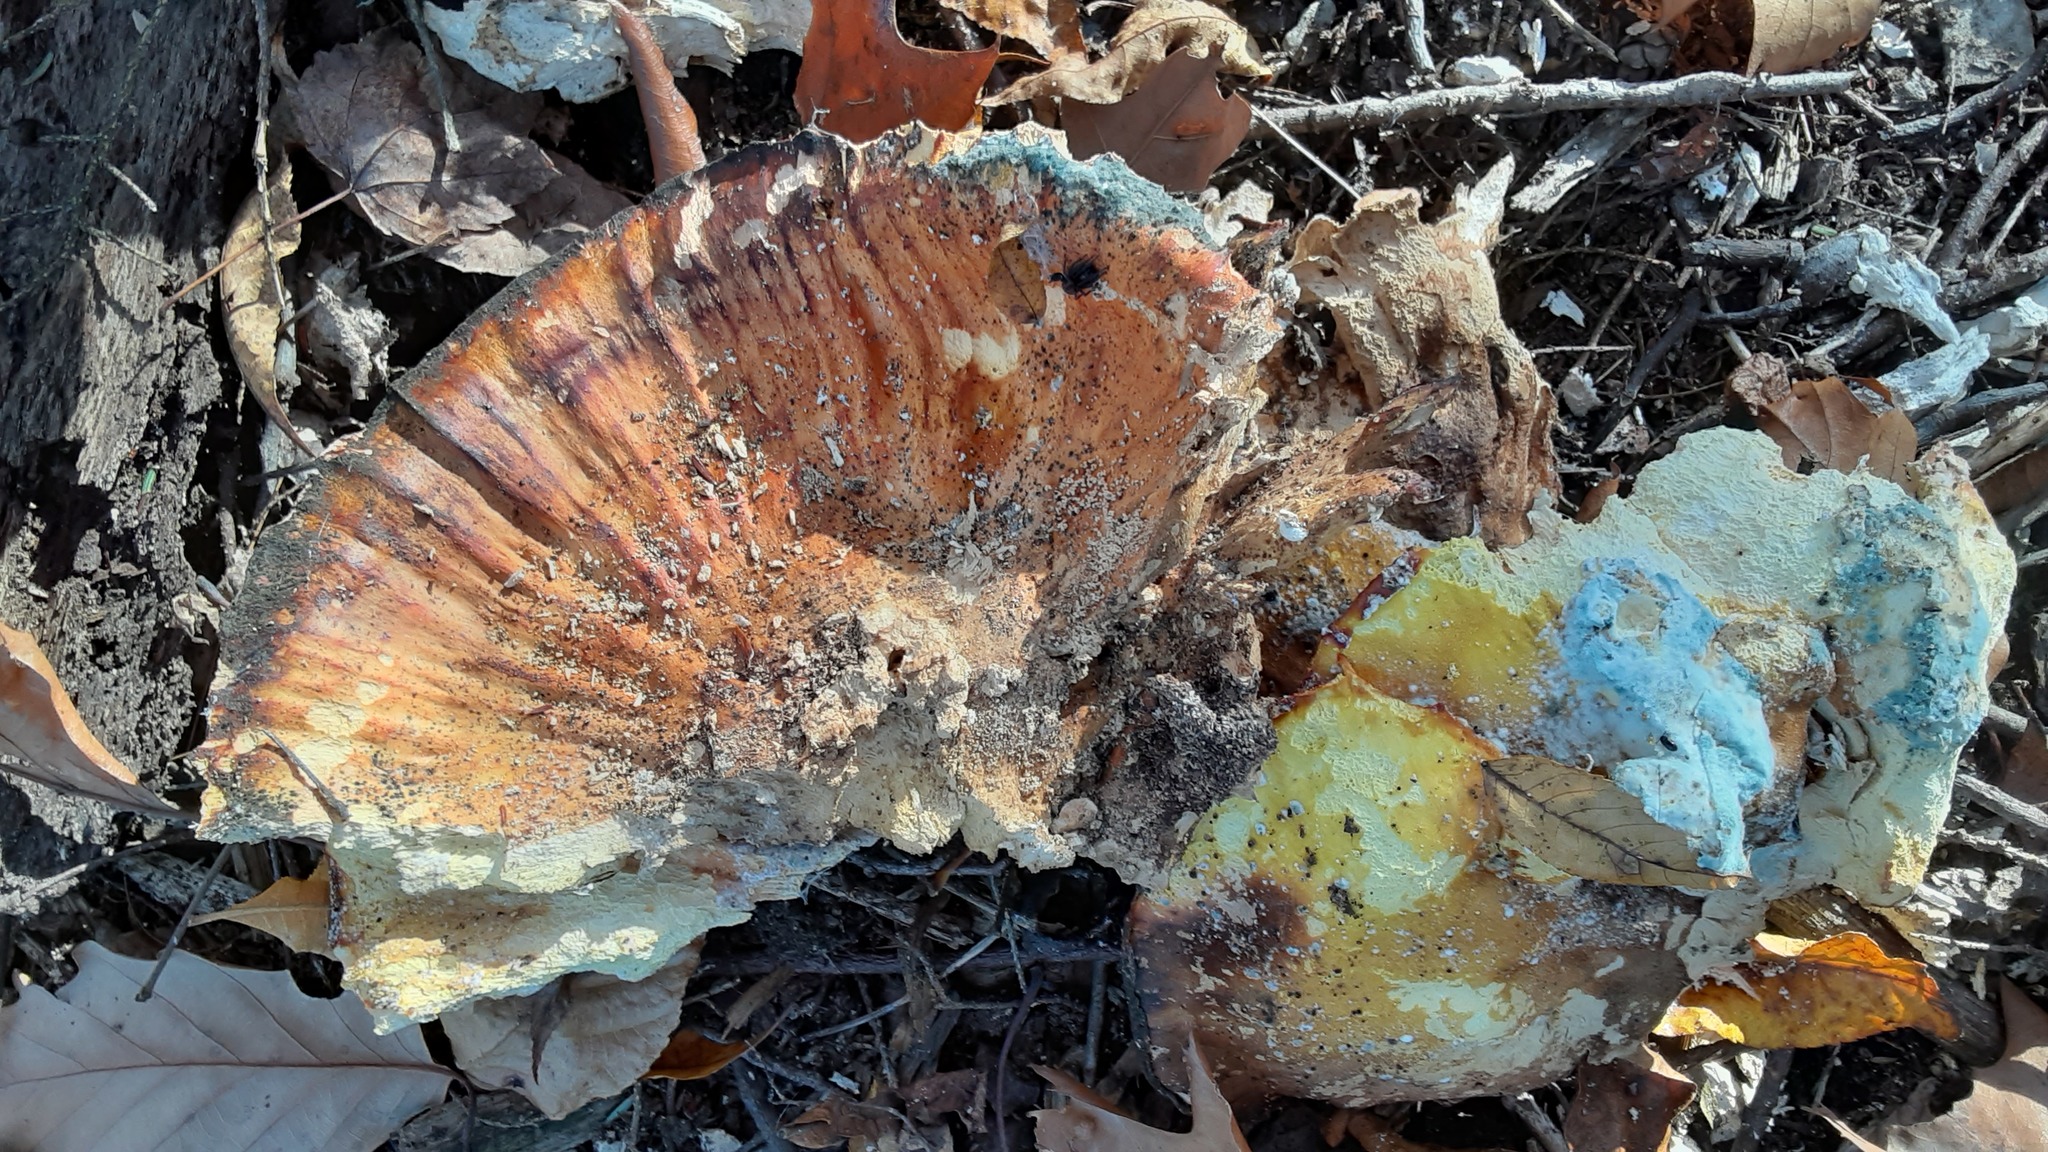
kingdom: Fungi
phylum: Basidiomycota
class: Agaricomycetes
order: Polyporales
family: Laetiporaceae
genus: Laetiporus
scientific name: Laetiporus sulphureus
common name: Chicken of the woods
